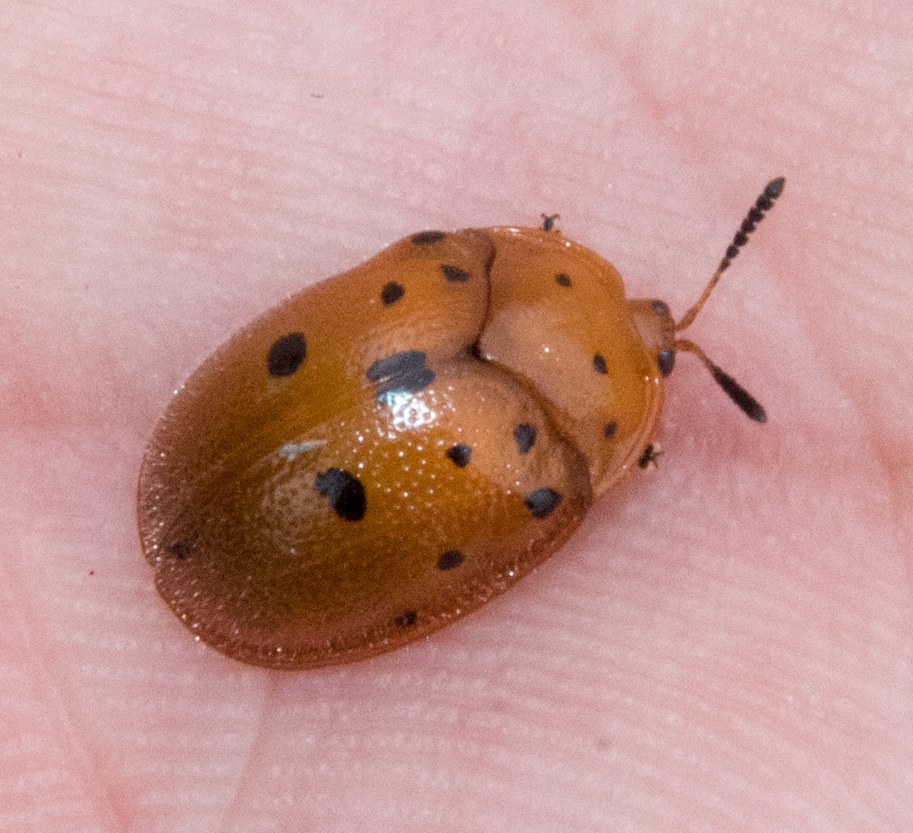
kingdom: Animalia
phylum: Arthropoda
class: Insecta
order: Coleoptera
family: Chrysomelidae
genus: Chelymorpha
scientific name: Chelymorpha phytophagica
